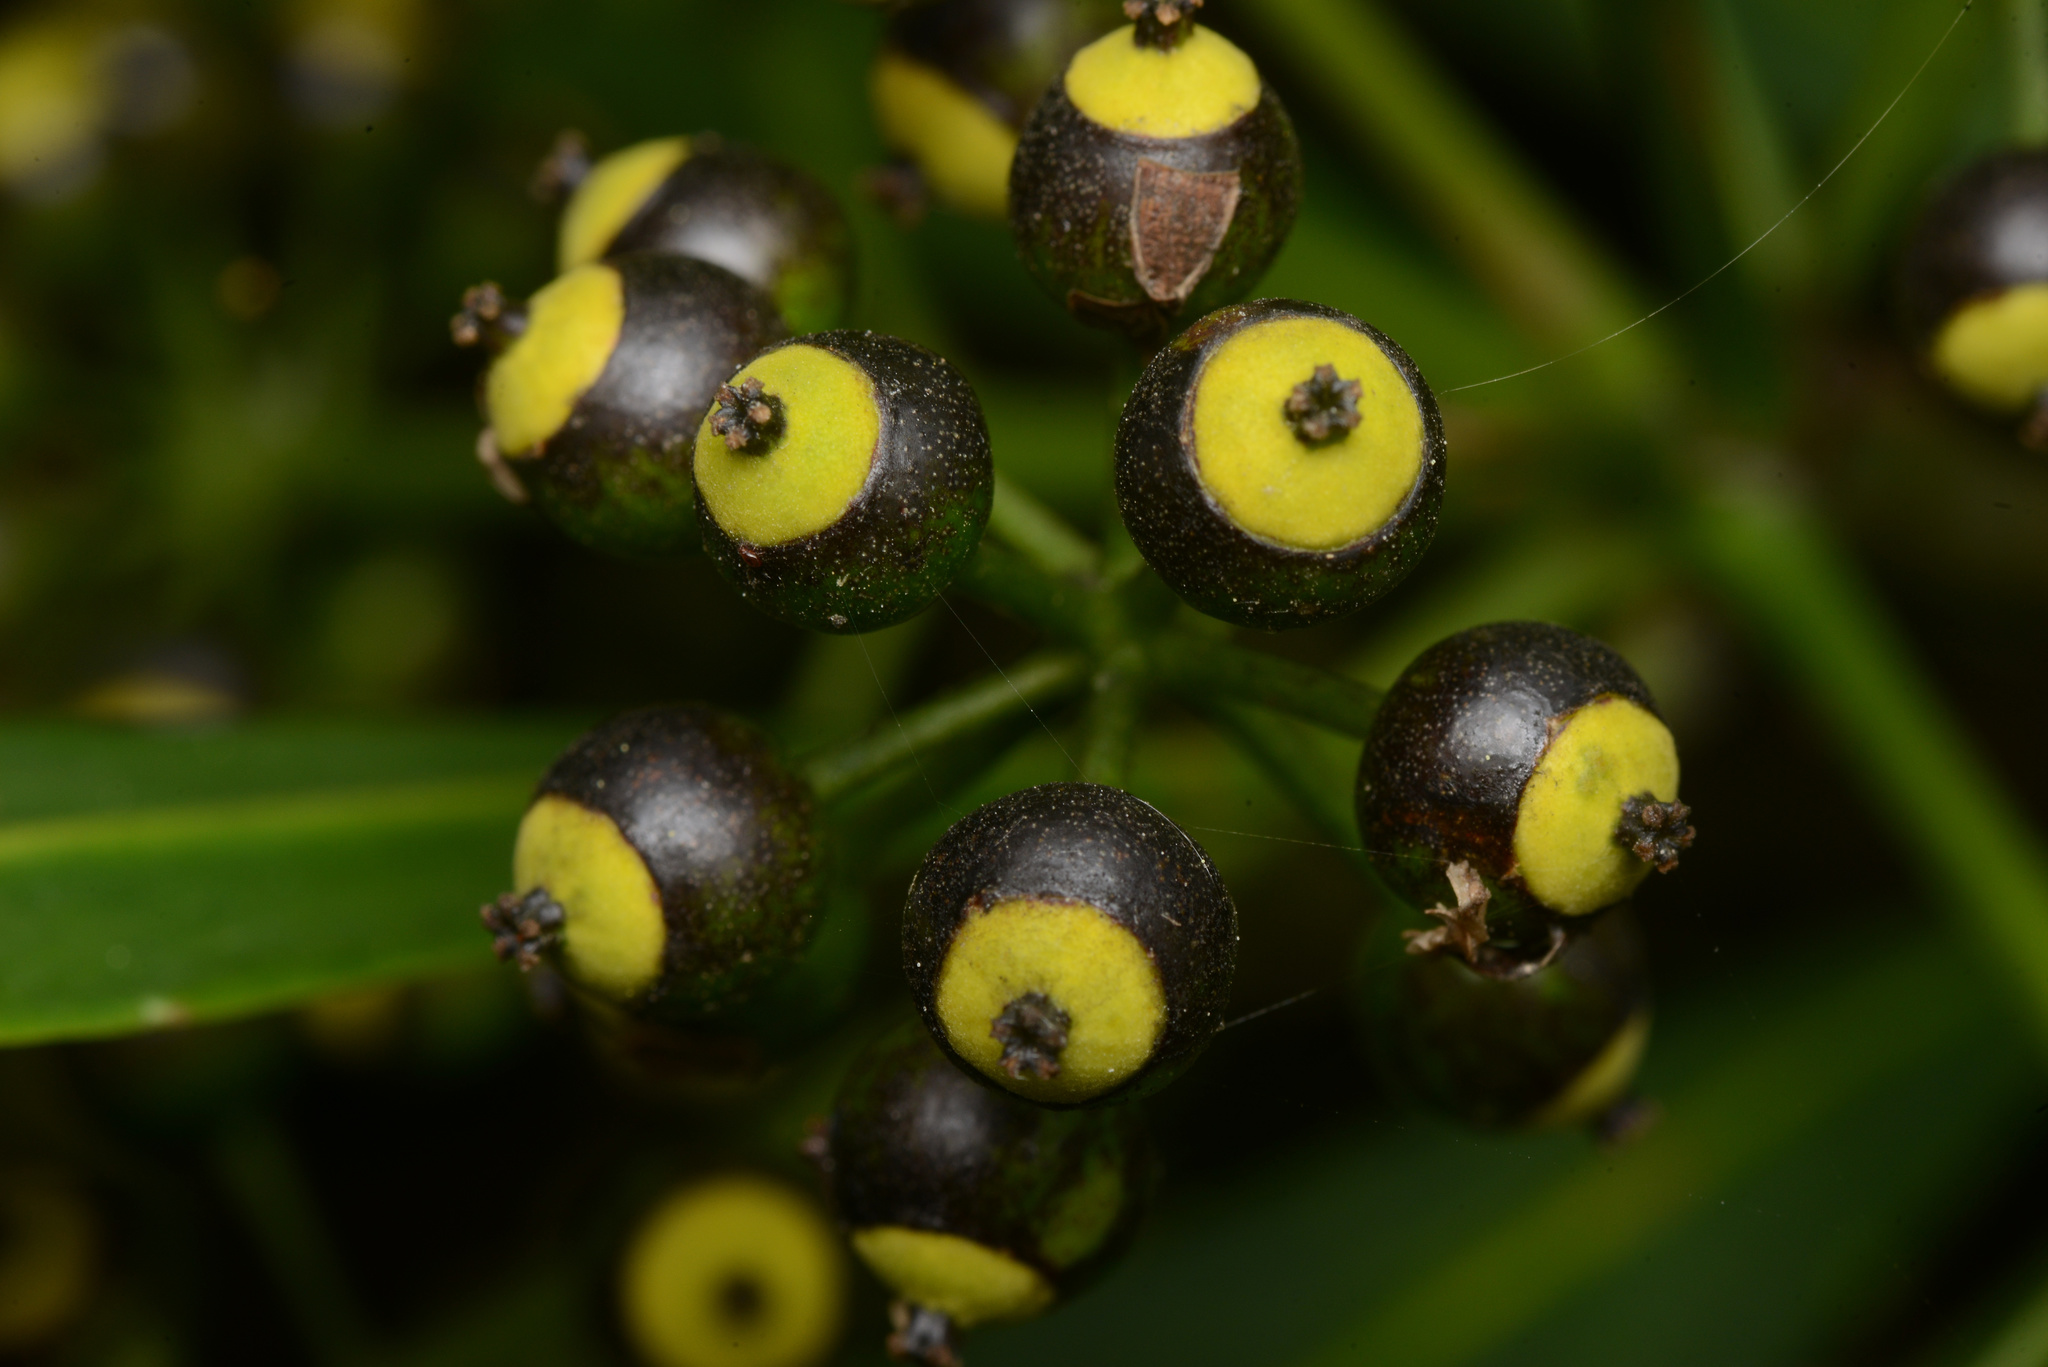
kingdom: Plantae
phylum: Tracheophyta
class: Magnoliopsida
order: Apiales
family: Araliaceae
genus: Pseudopanax
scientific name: Pseudopanax crassifolius
